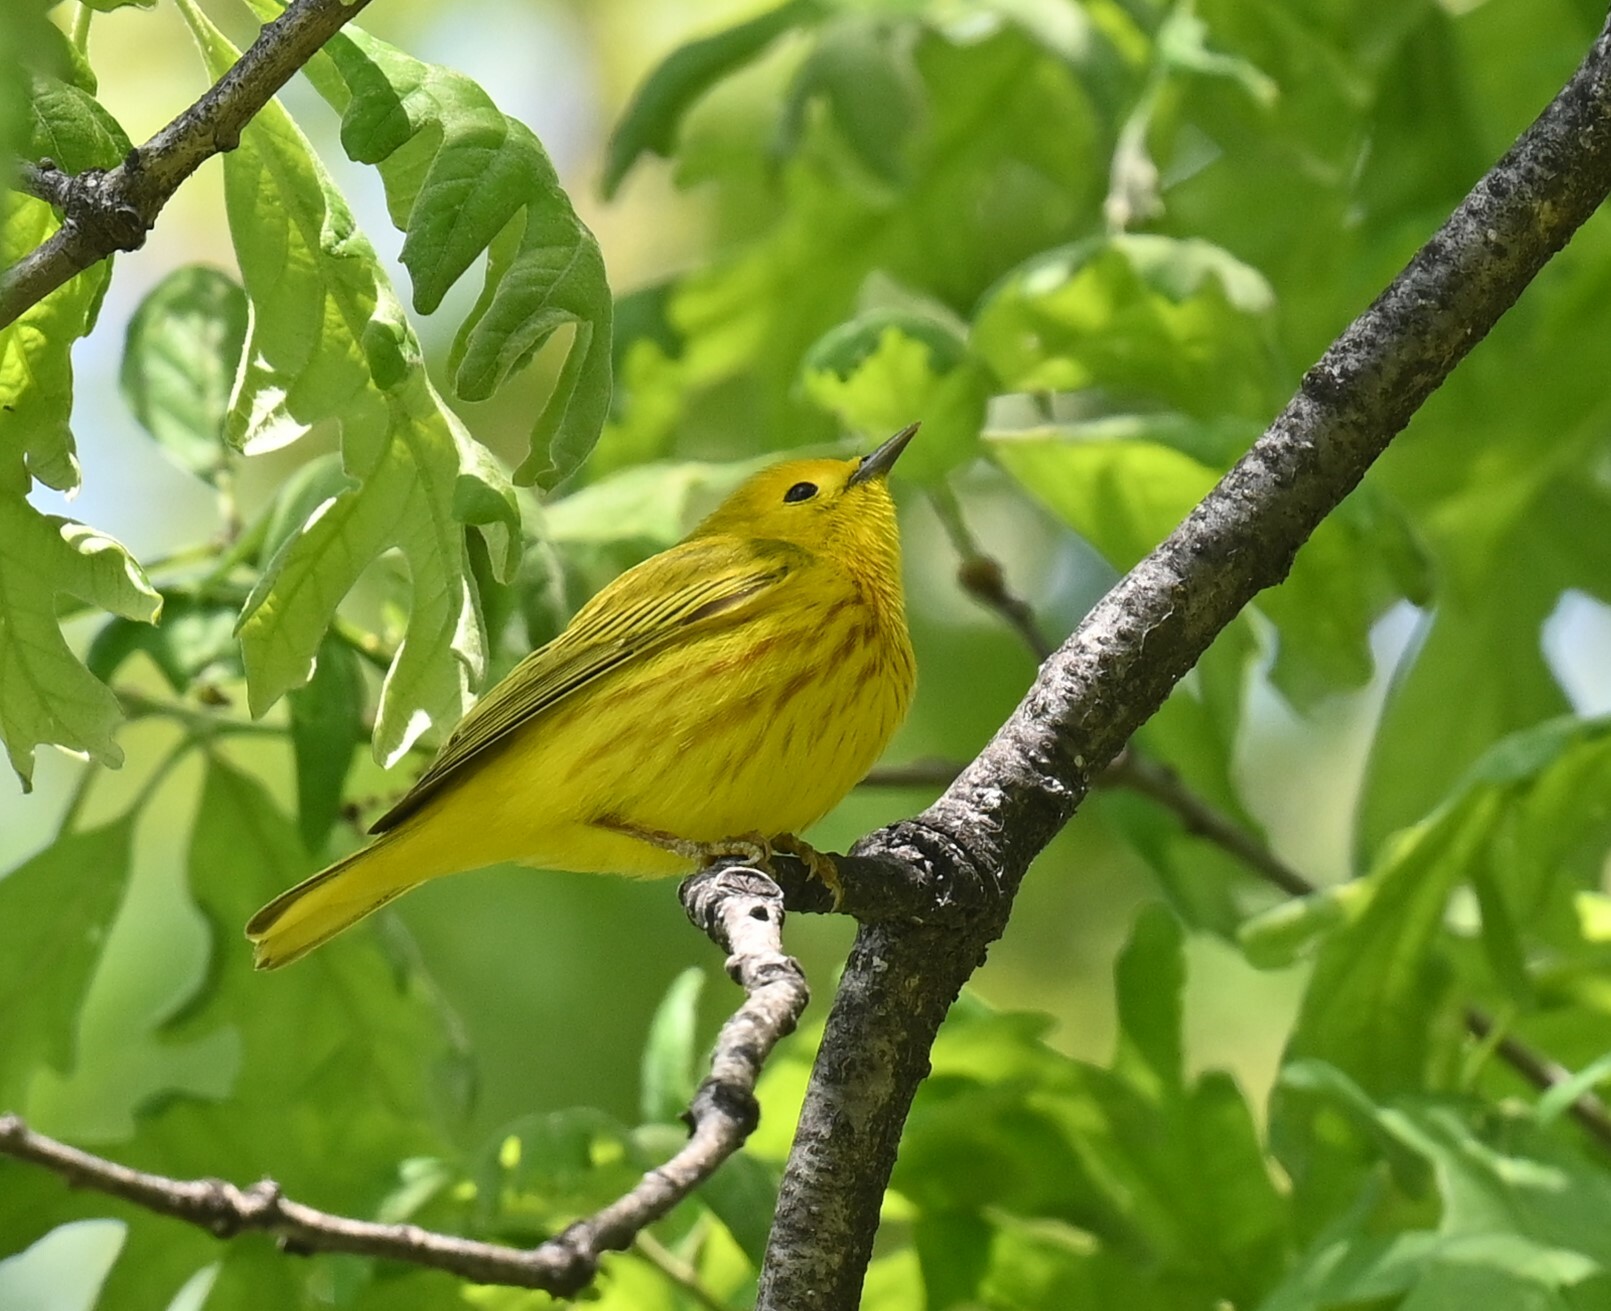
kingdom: Animalia
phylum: Chordata
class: Aves
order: Passeriformes
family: Parulidae
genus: Setophaga
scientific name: Setophaga petechia
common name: Yellow warbler
